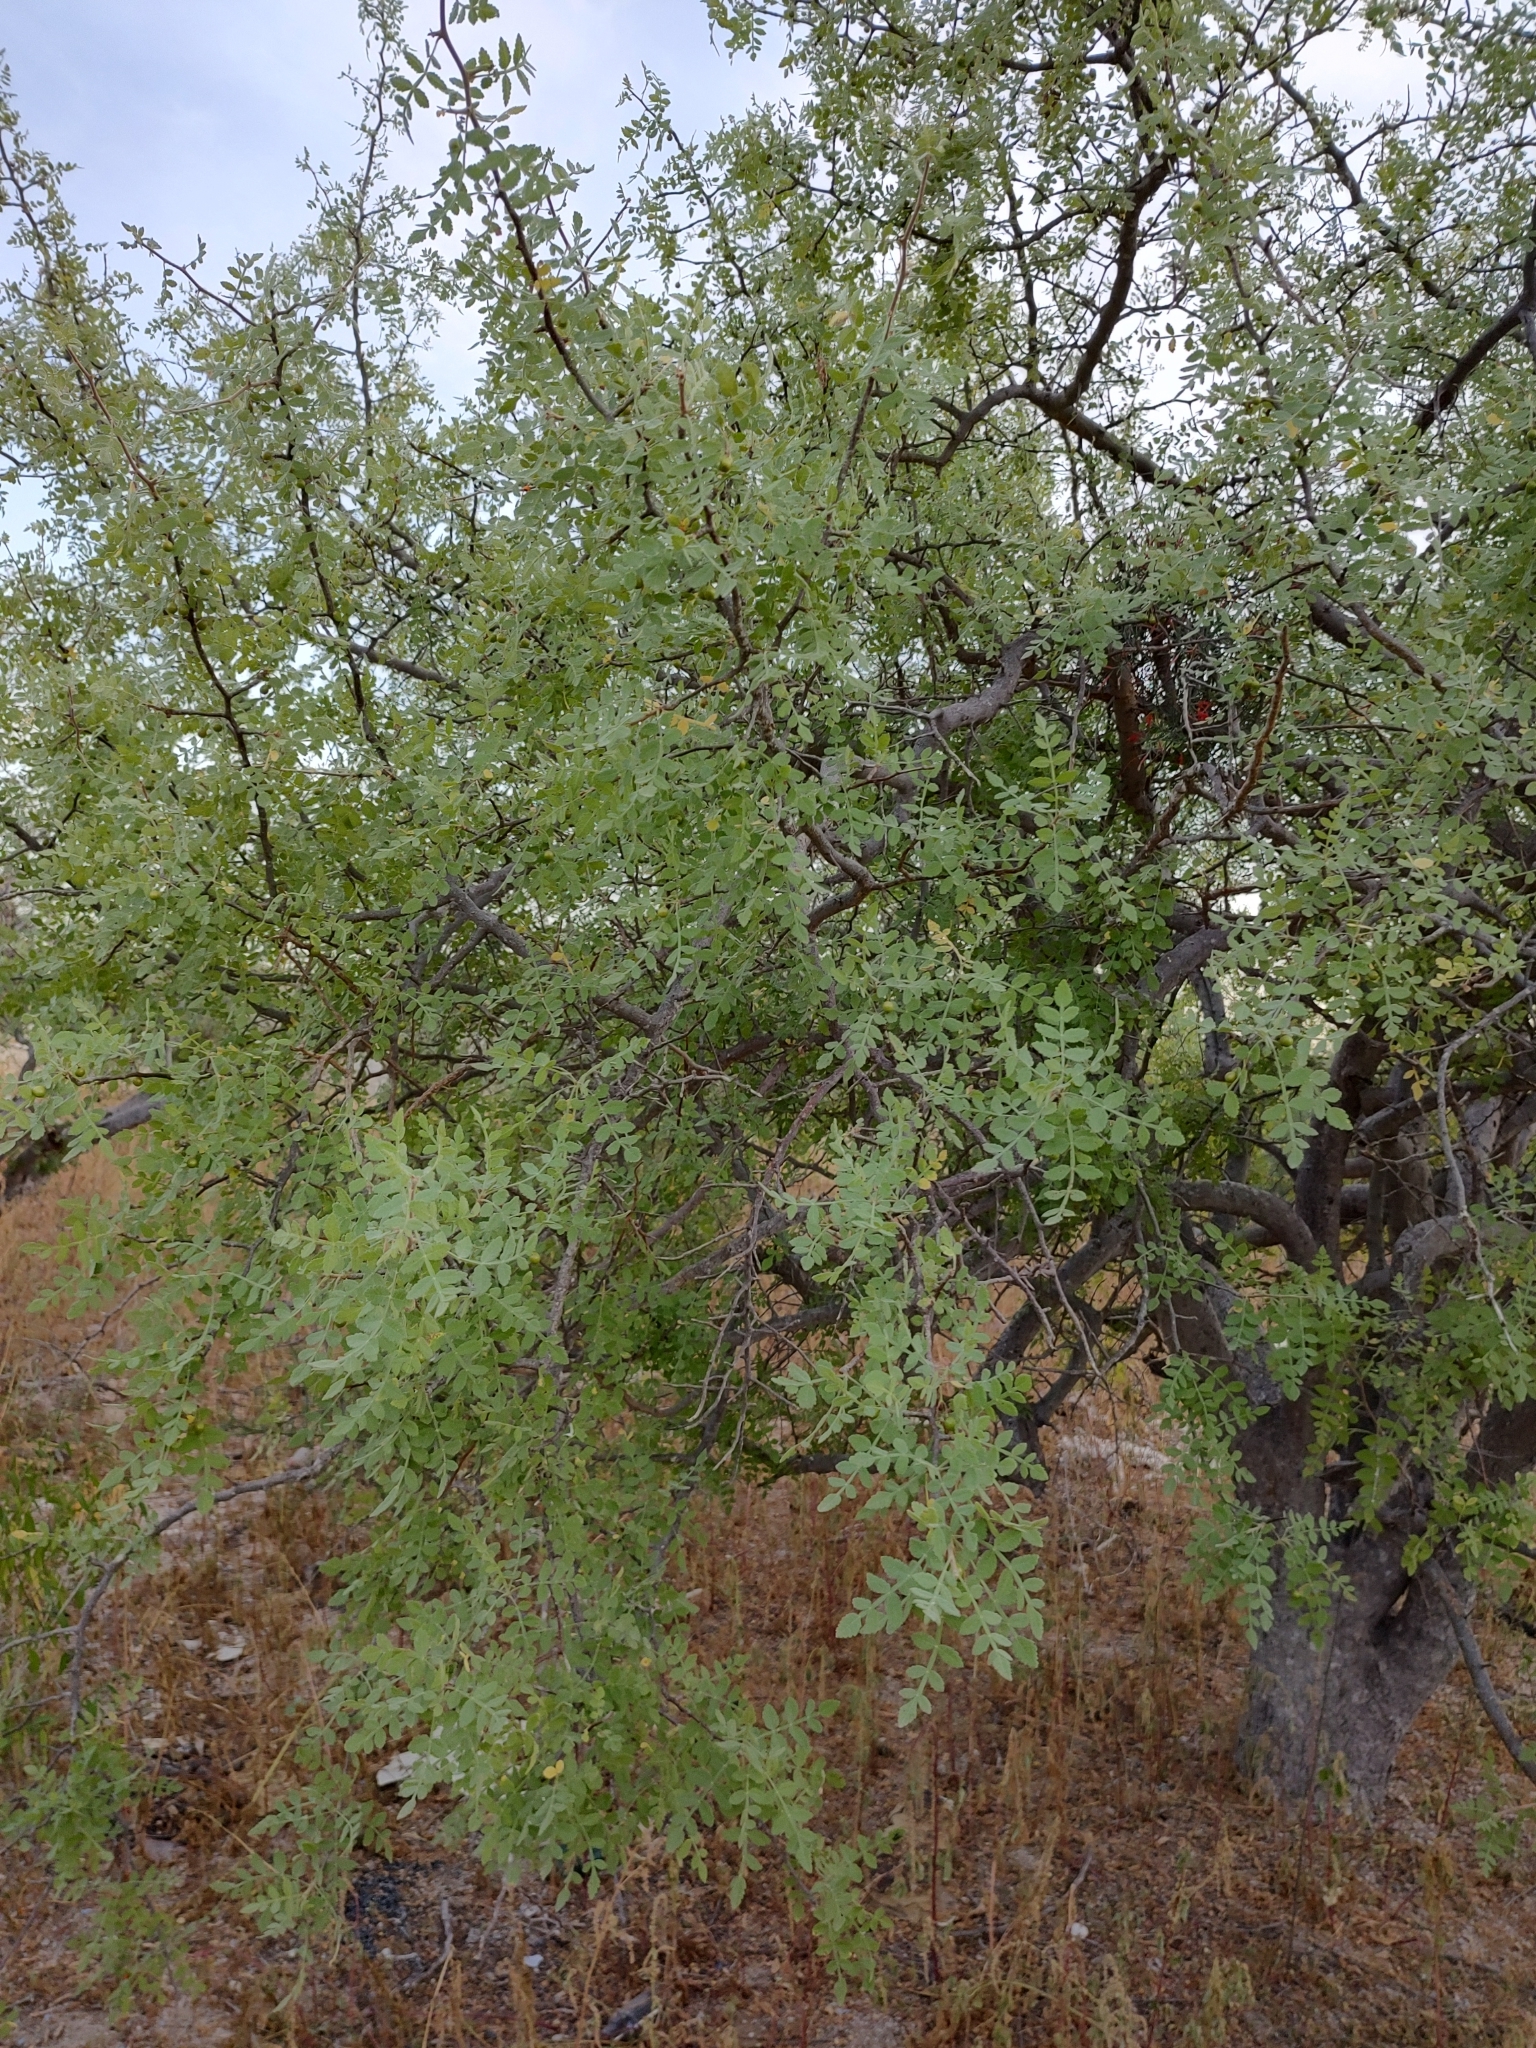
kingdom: Plantae
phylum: Tracheophyta
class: Magnoliopsida
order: Sapindales
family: Burseraceae
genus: Bursera
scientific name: Bursera filicifolia
